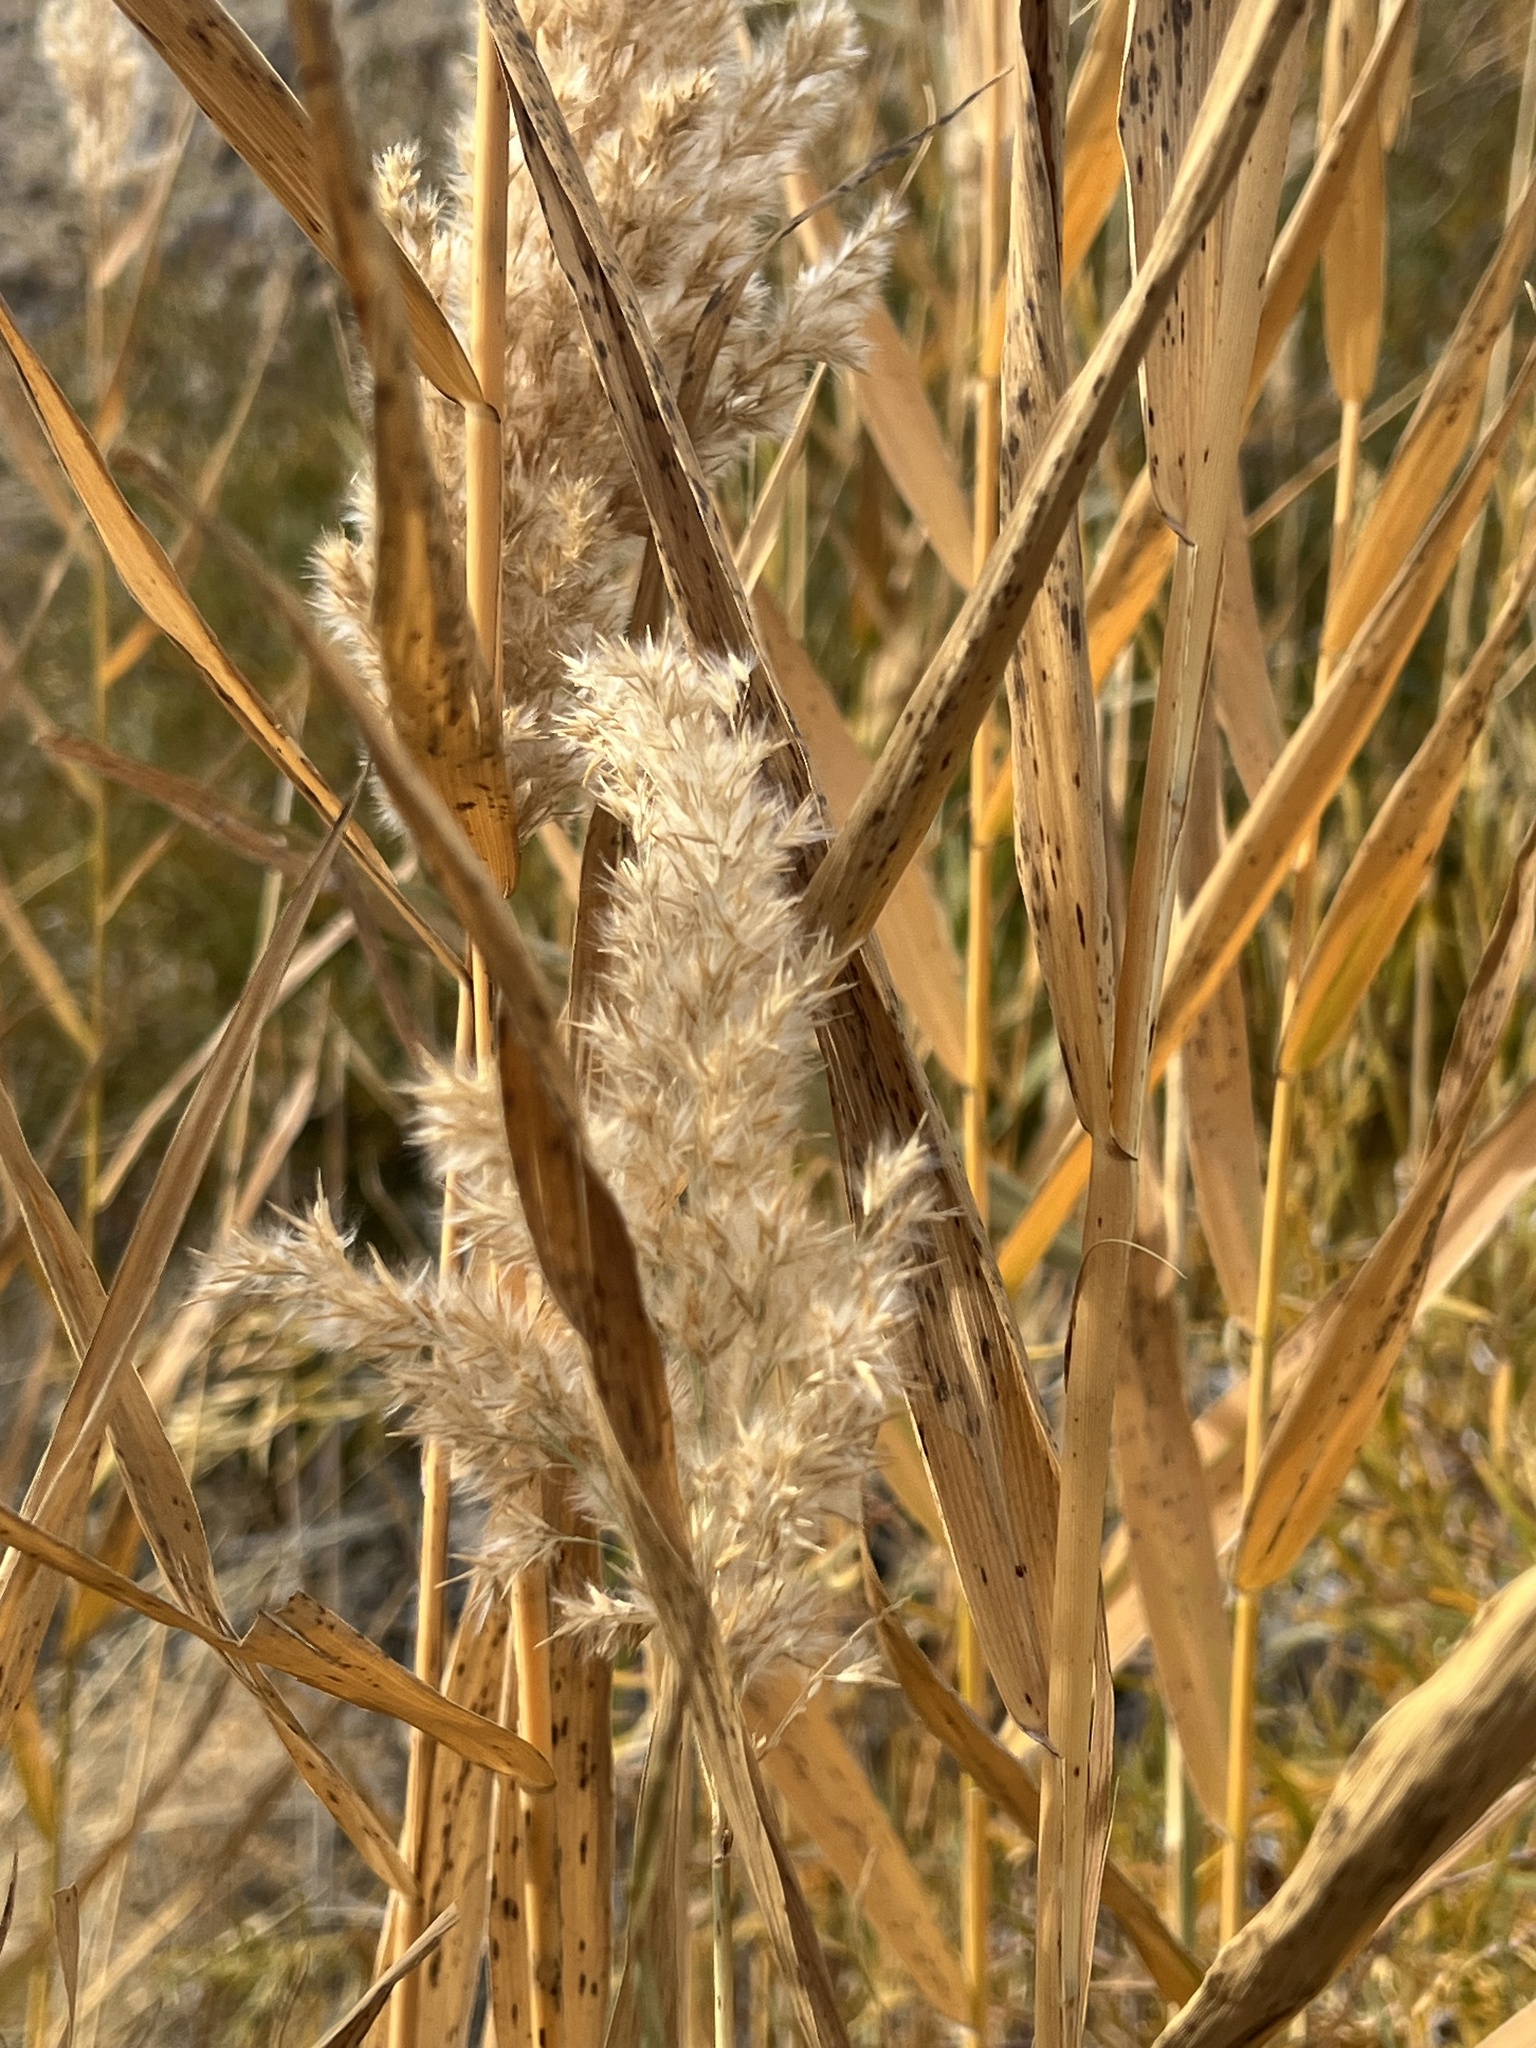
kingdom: Plantae
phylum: Tracheophyta
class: Liliopsida
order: Poales
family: Poaceae
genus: Phragmites
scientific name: Phragmites australis
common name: Common reed
